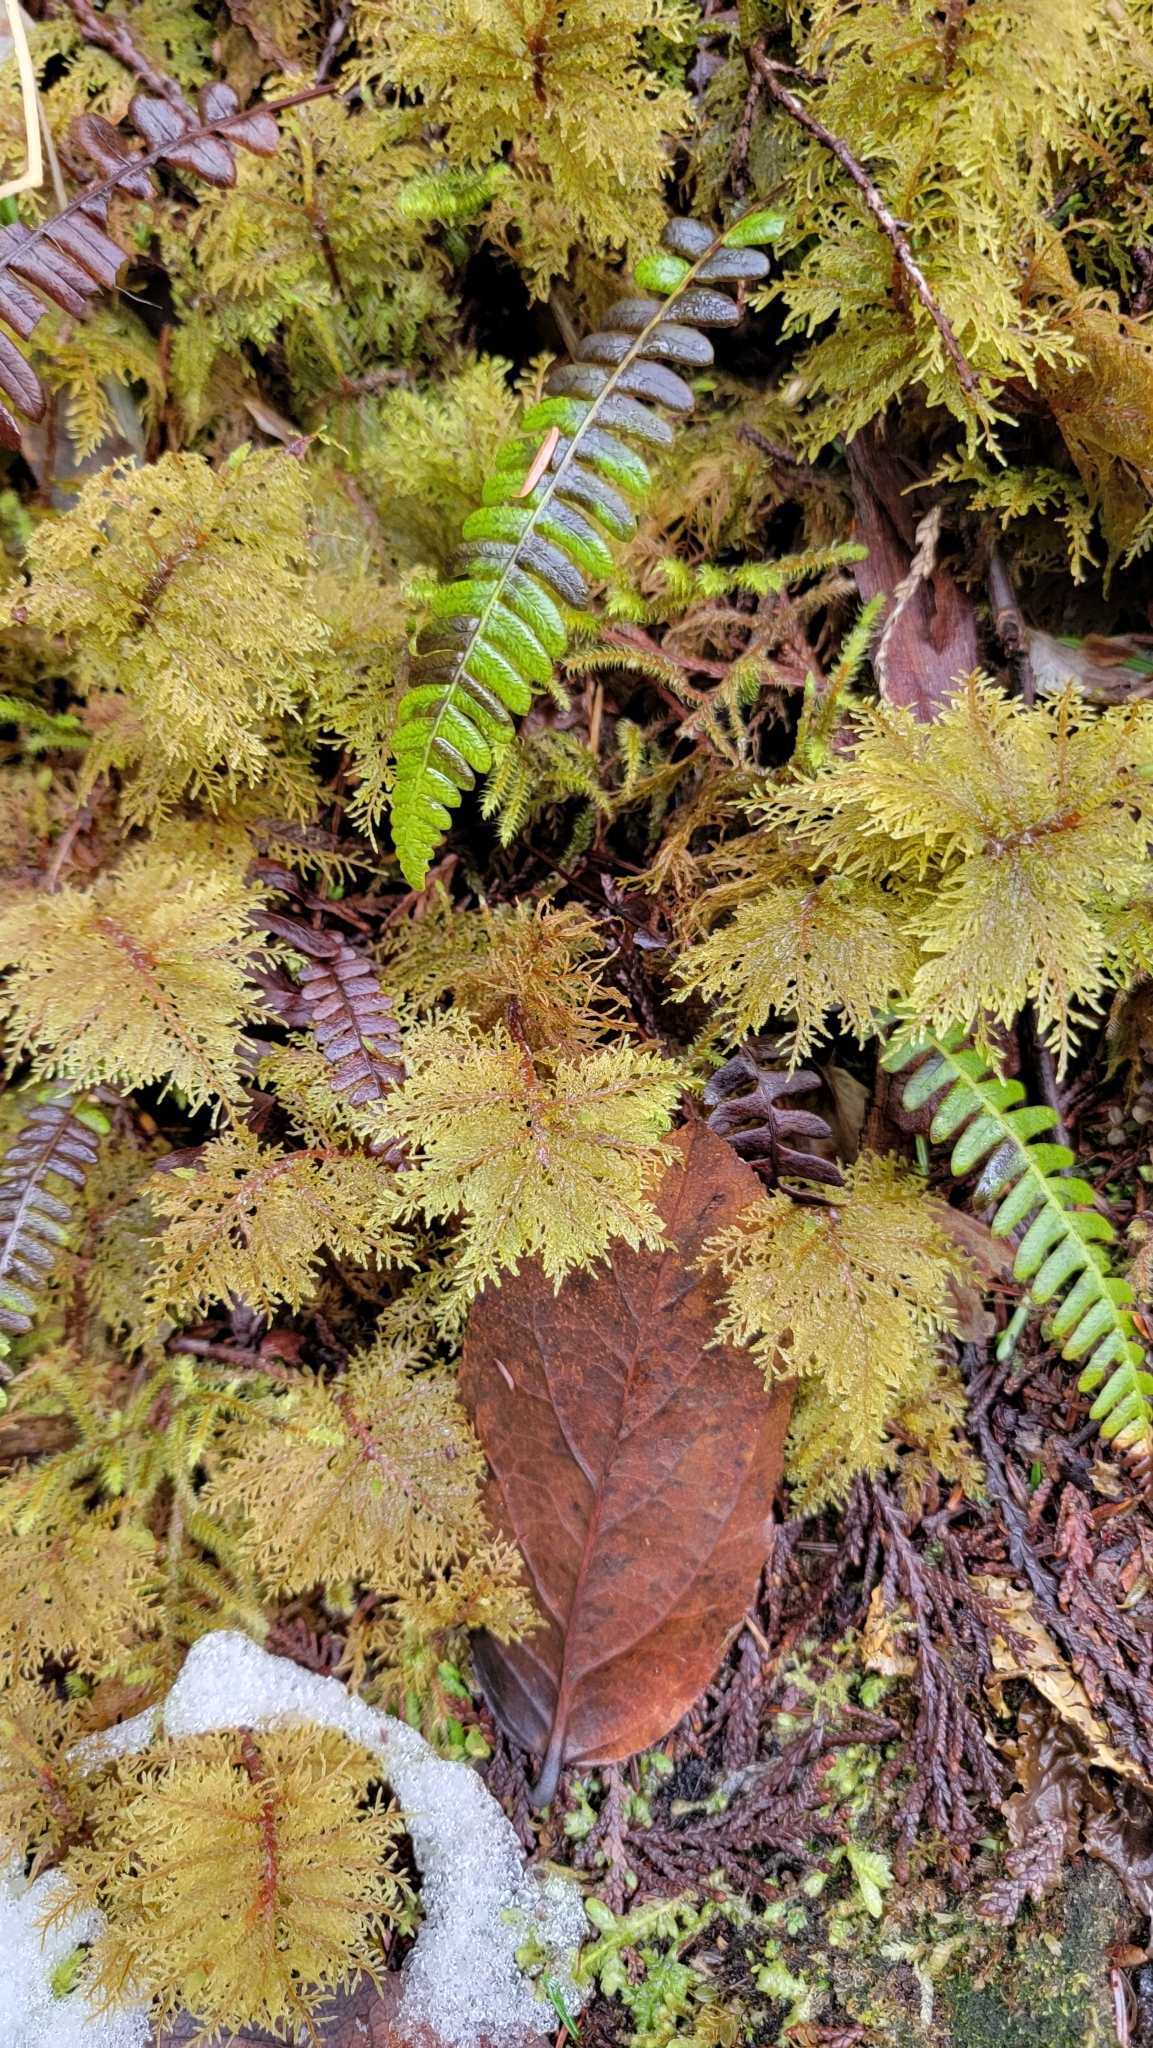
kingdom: Plantae
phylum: Bryophyta
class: Bryopsida
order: Hypnales
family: Hylocomiaceae
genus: Hylocomium
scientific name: Hylocomium splendens
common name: Stairstep moss
